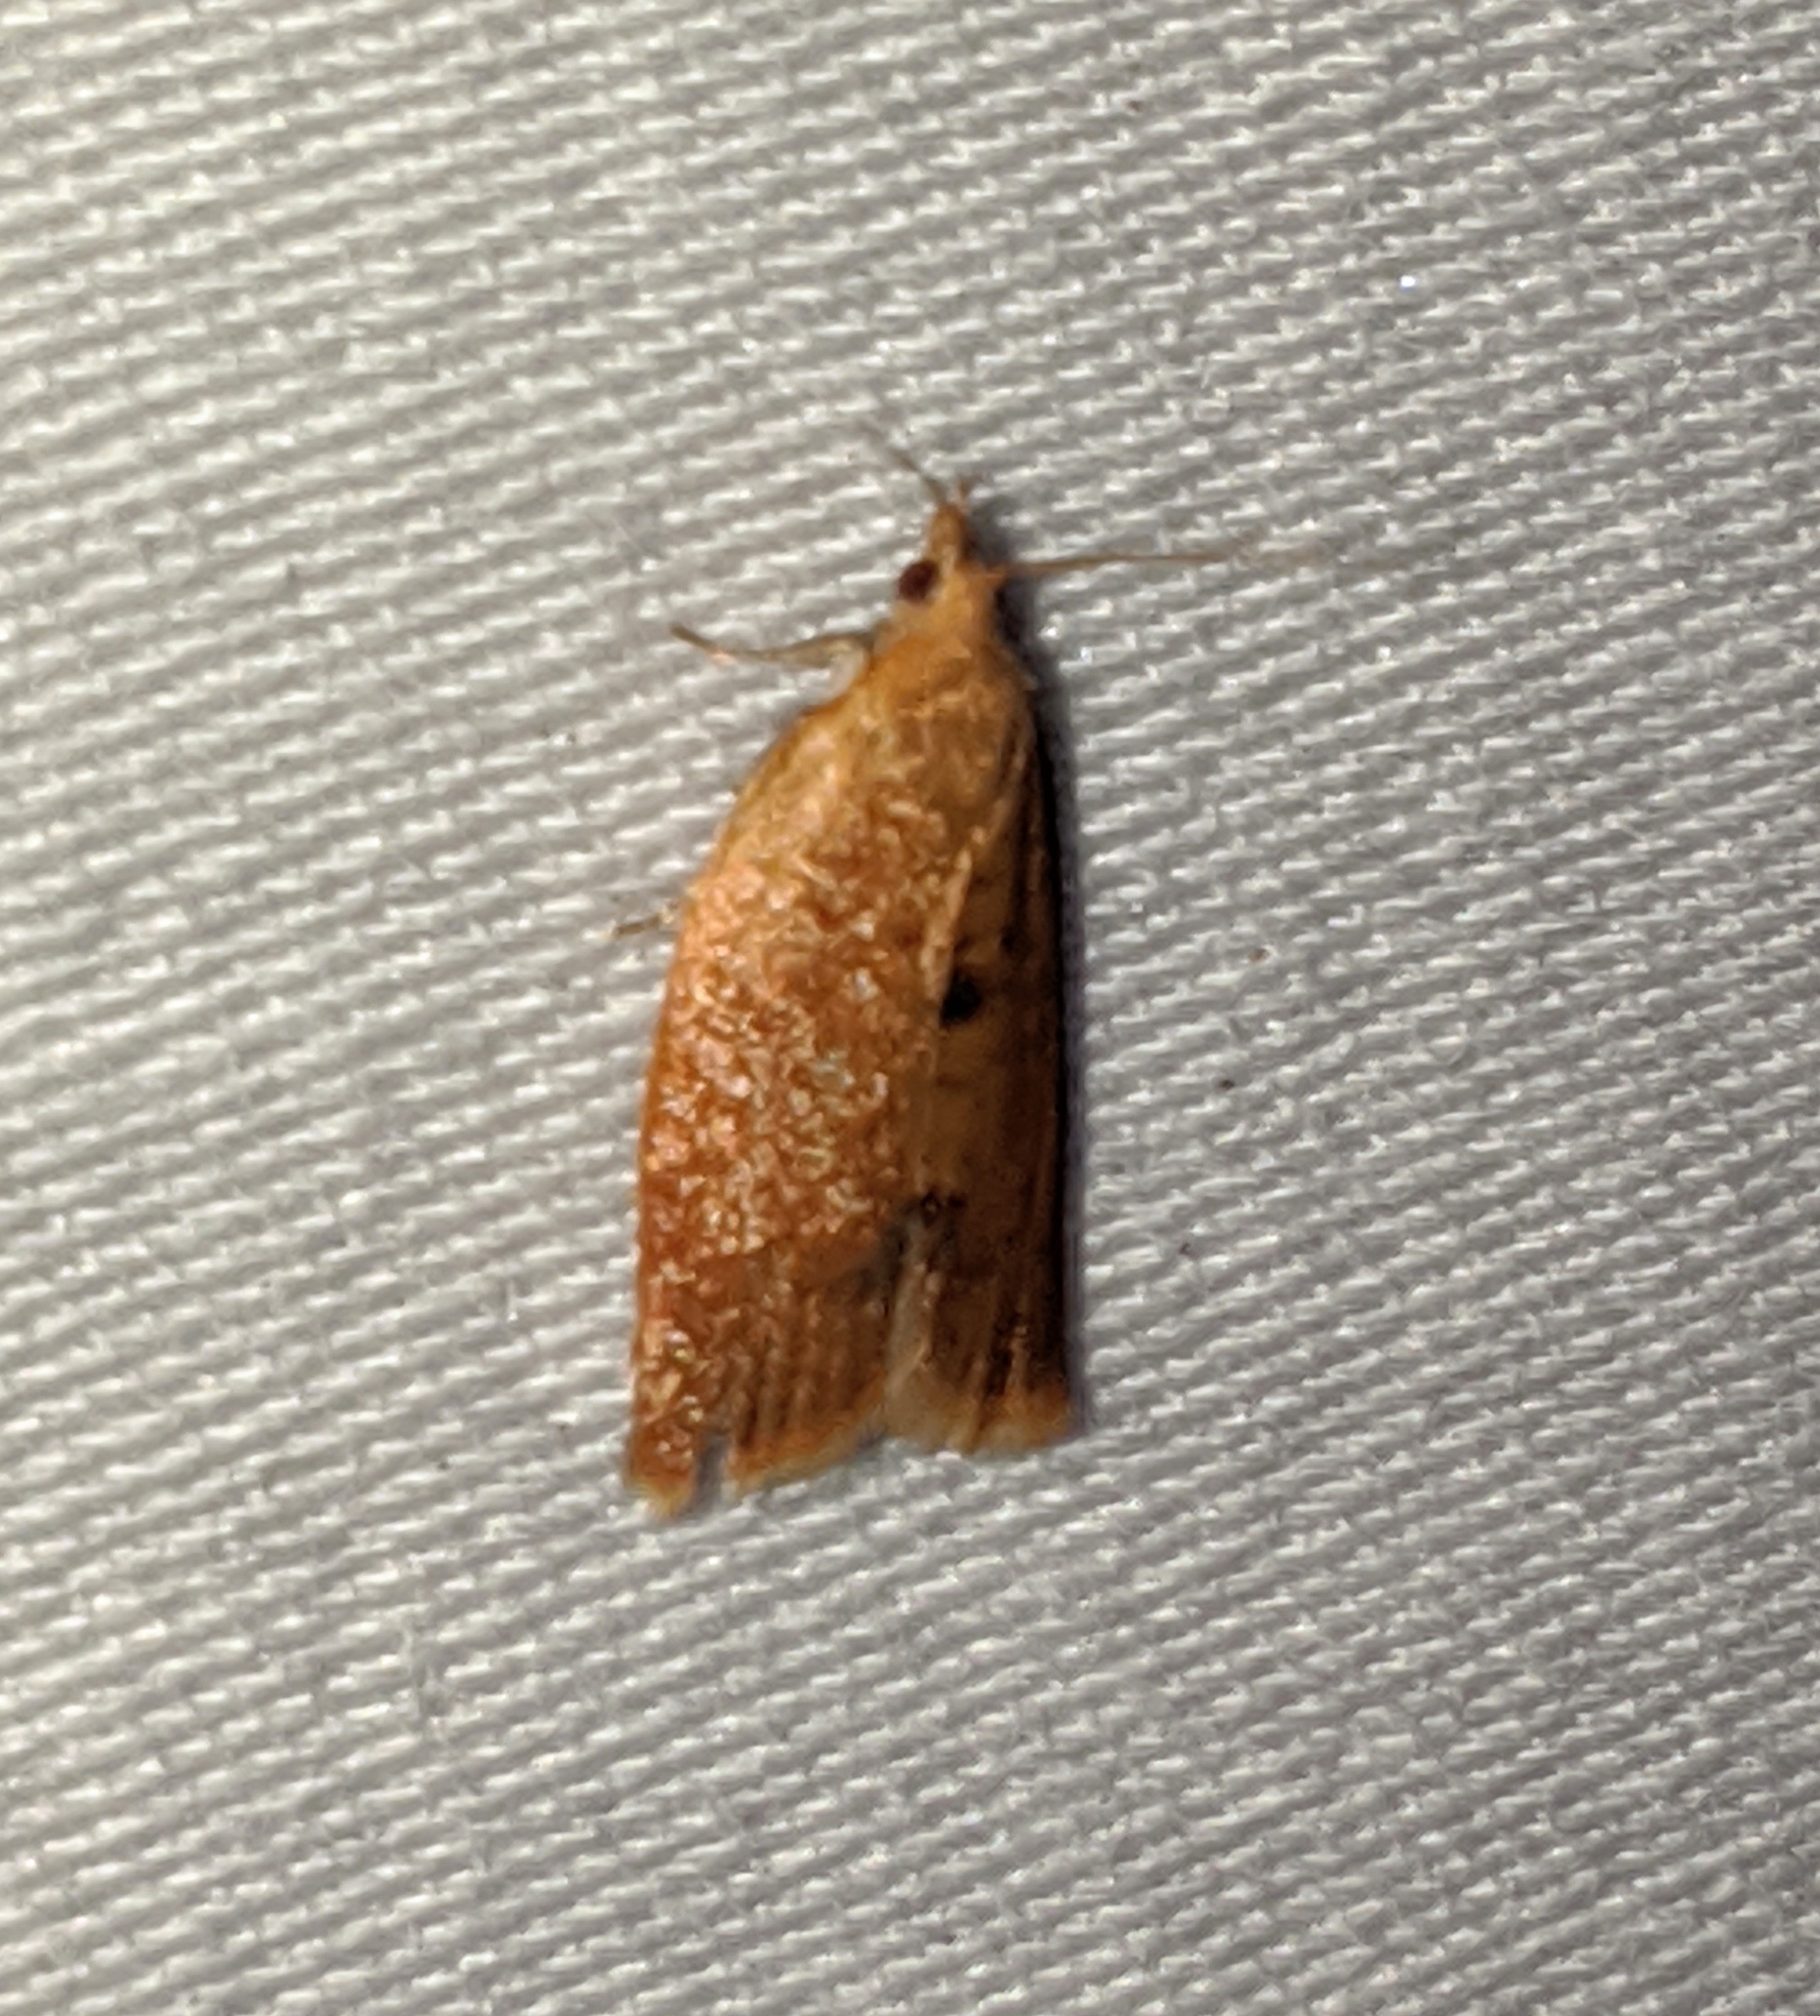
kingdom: Animalia
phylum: Arthropoda
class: Insecta
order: Lepidoptera
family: Tortricidae
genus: Clepsis
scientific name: Clepsis consimilana
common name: Privet tortrix
